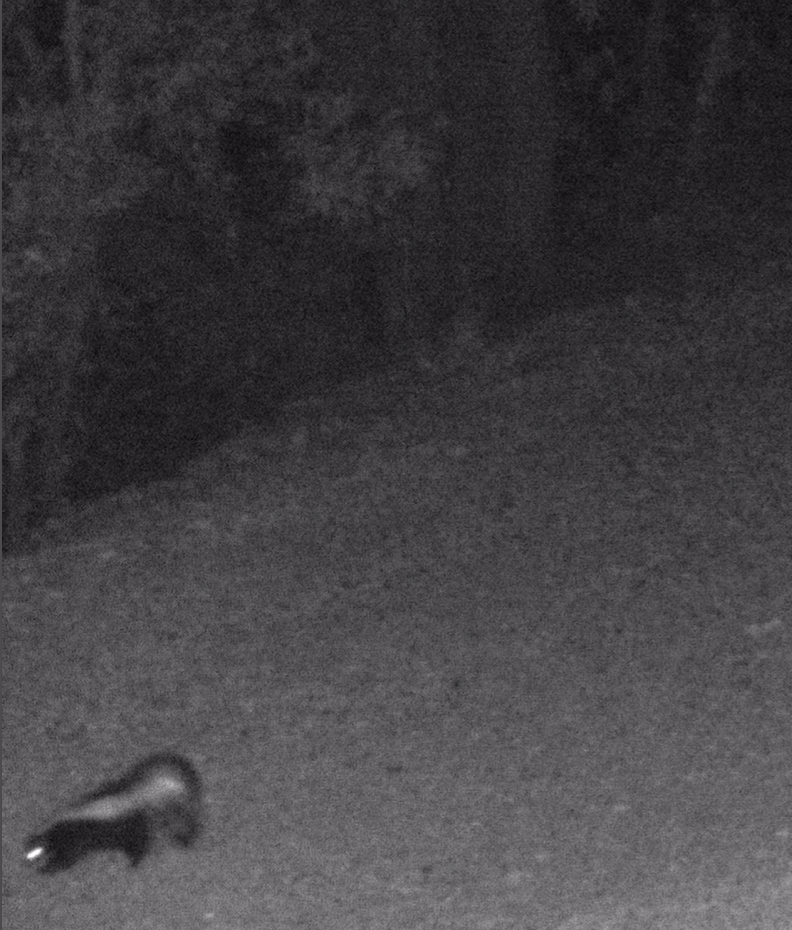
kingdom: Animalia
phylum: Chordata
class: Mammalia
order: Carnivora
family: Mephitidae
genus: Mephitis
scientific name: Mephitis mephitis
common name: Striped skunk
